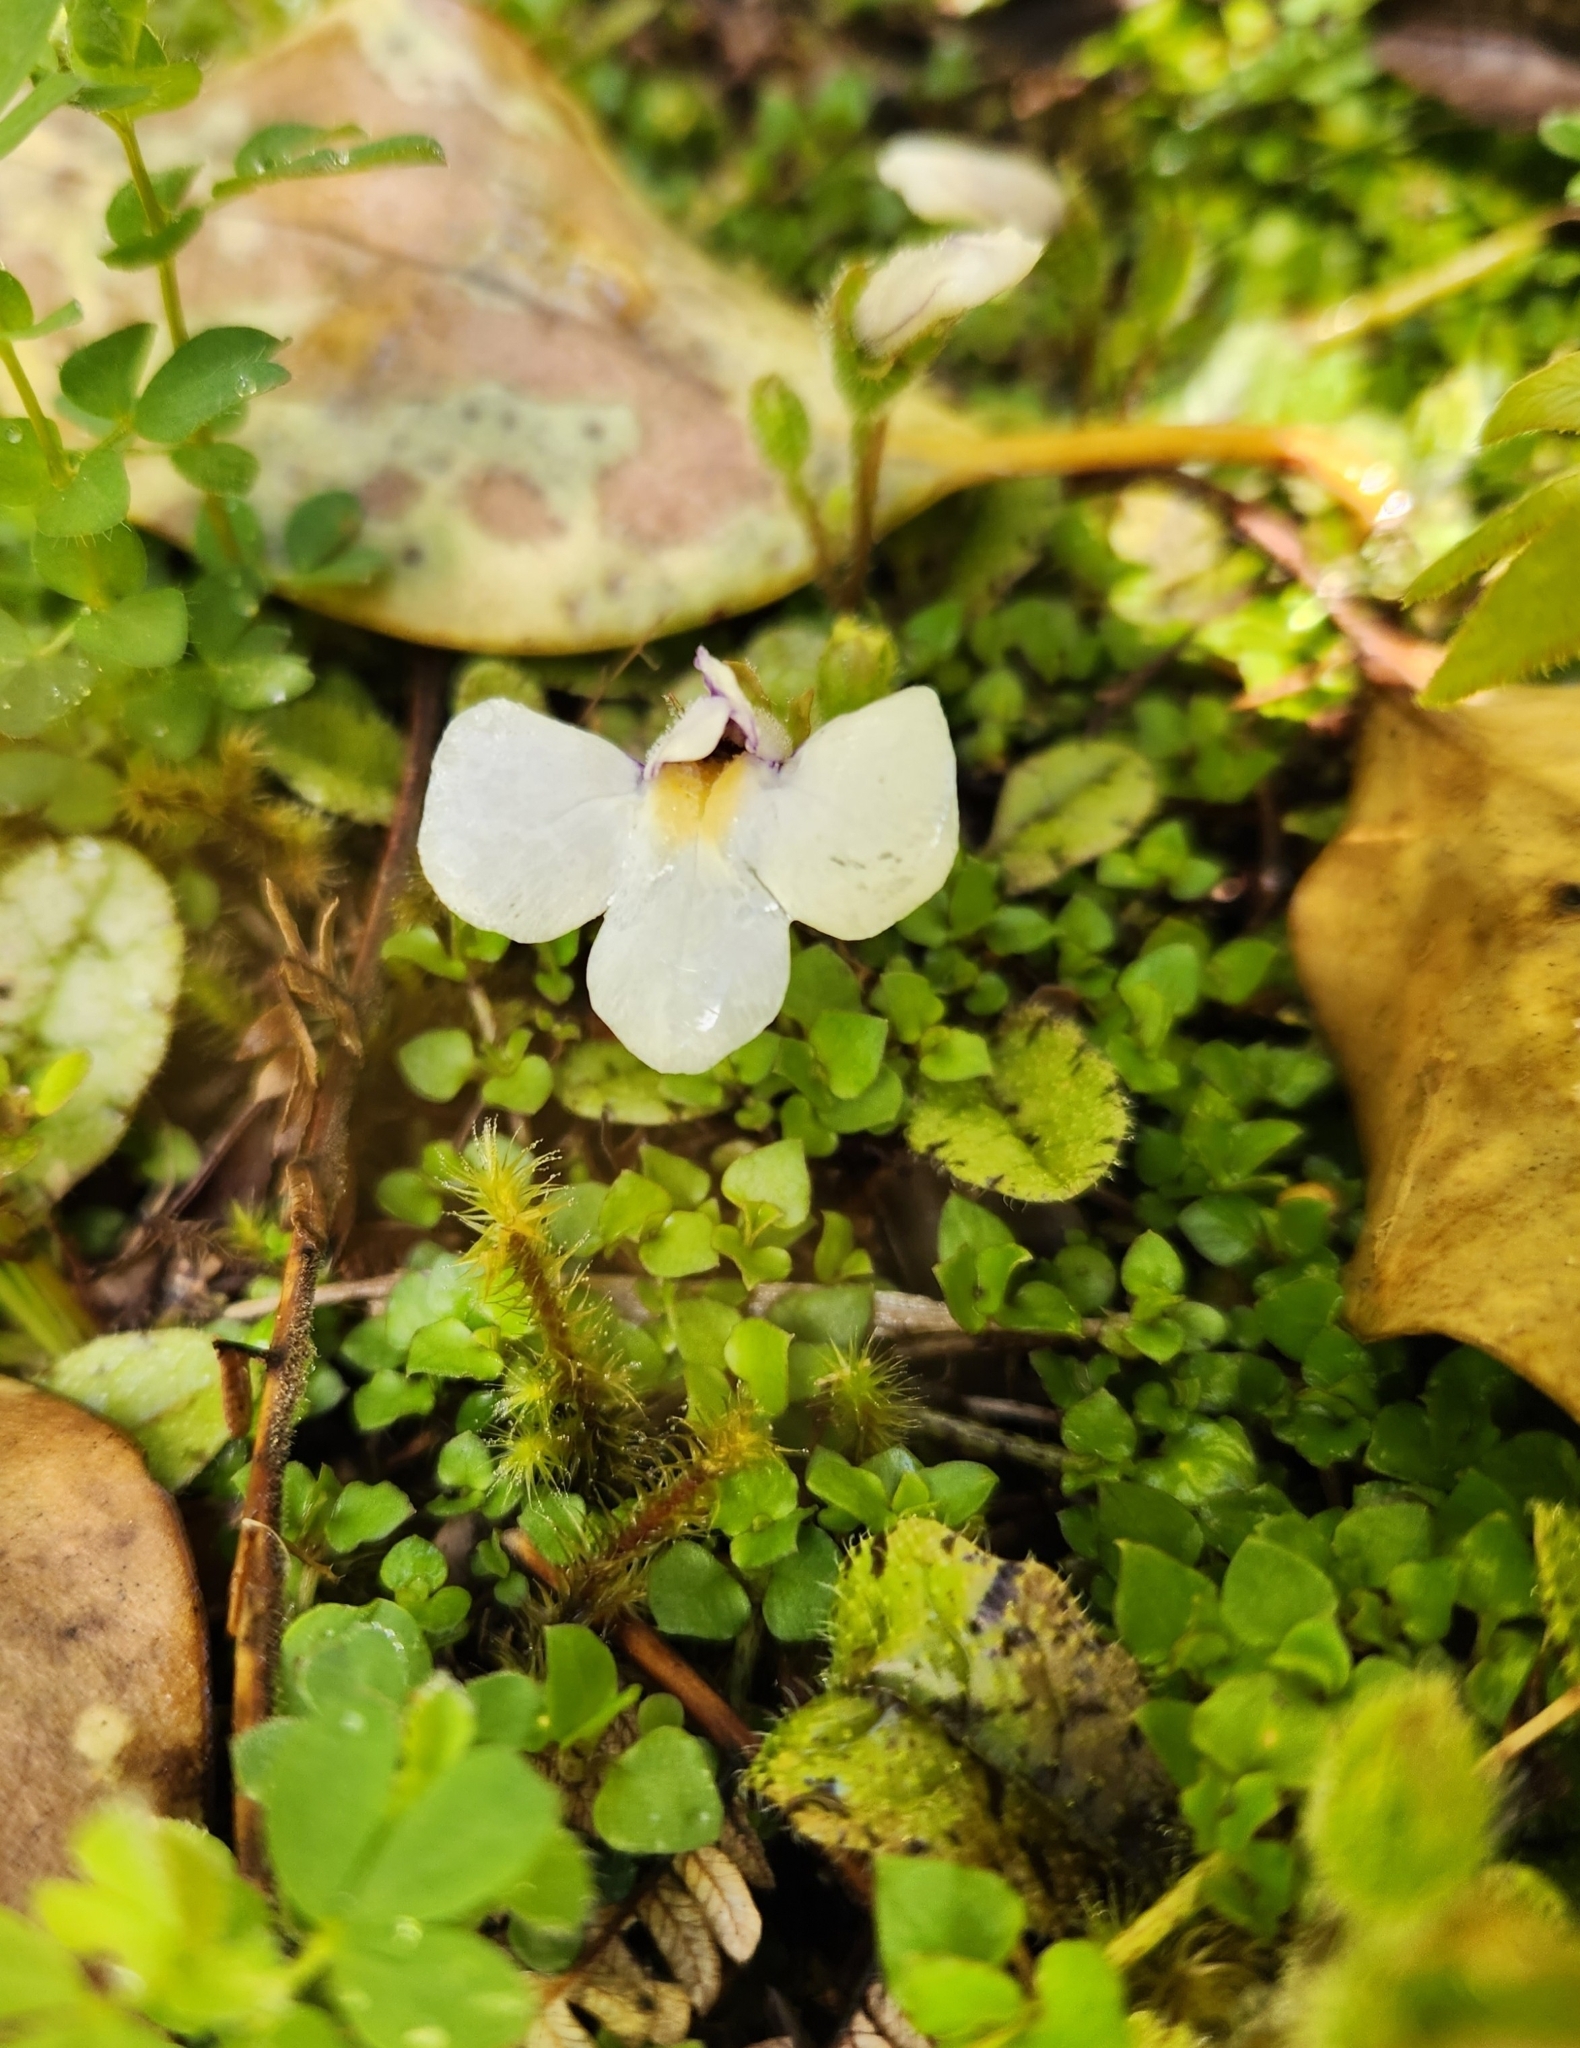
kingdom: Plantae
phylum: Tracheophyta
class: Magnoliopsida
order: Lamiales
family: Mazaceae
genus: Mazus
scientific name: Mazus radicans
